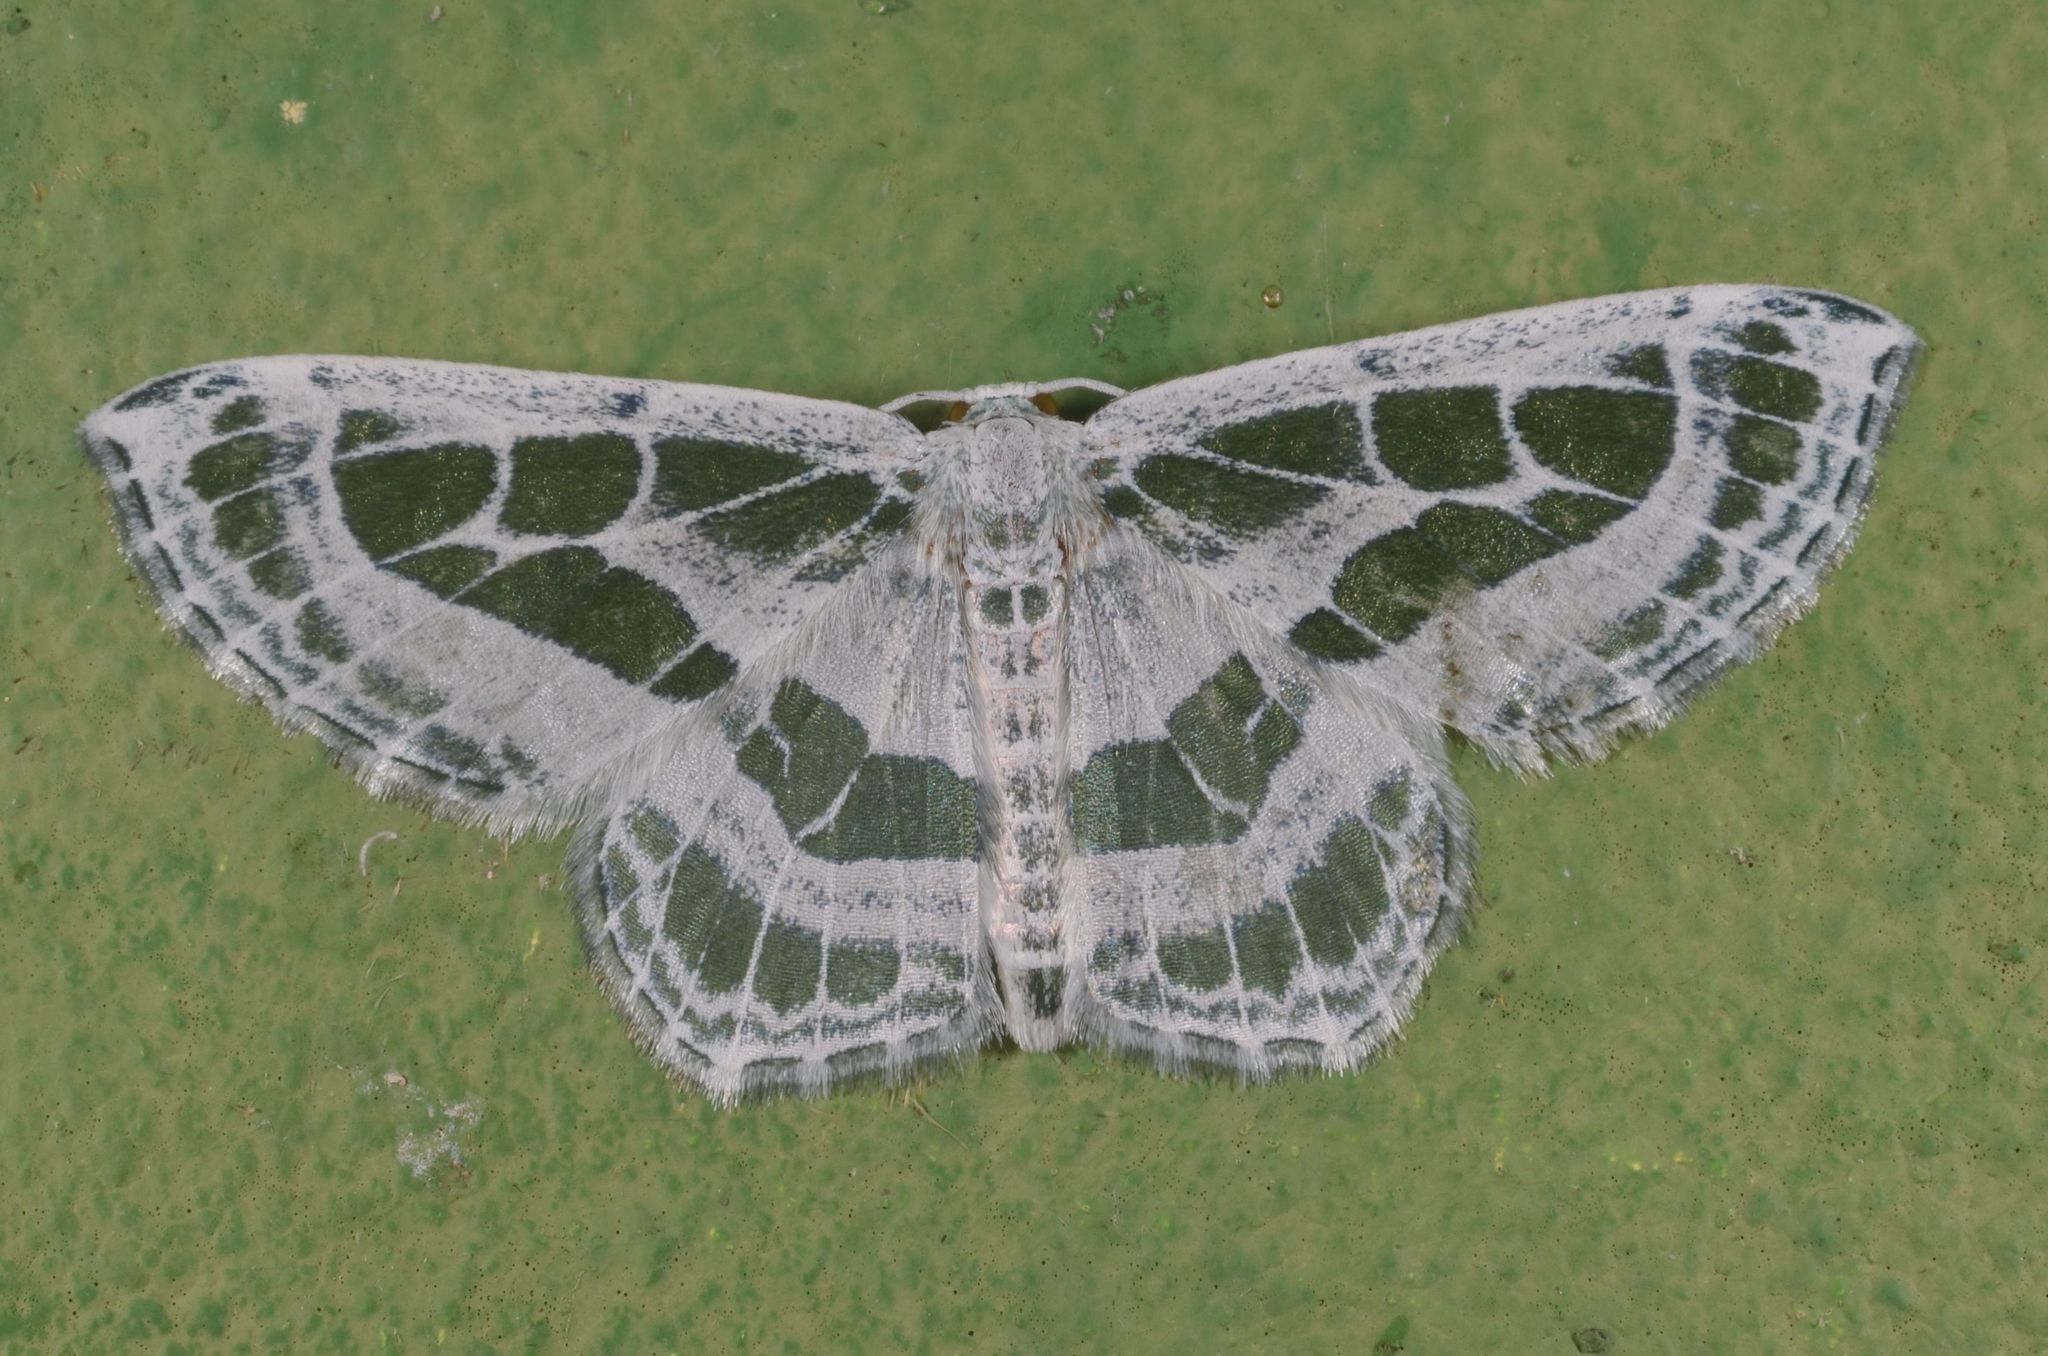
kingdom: Animalia
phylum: Arthropoda
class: Insecta
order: Lepidoptera
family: Geometridae
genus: Pseudeuchlora
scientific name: Pseudeuchlora kafebera
